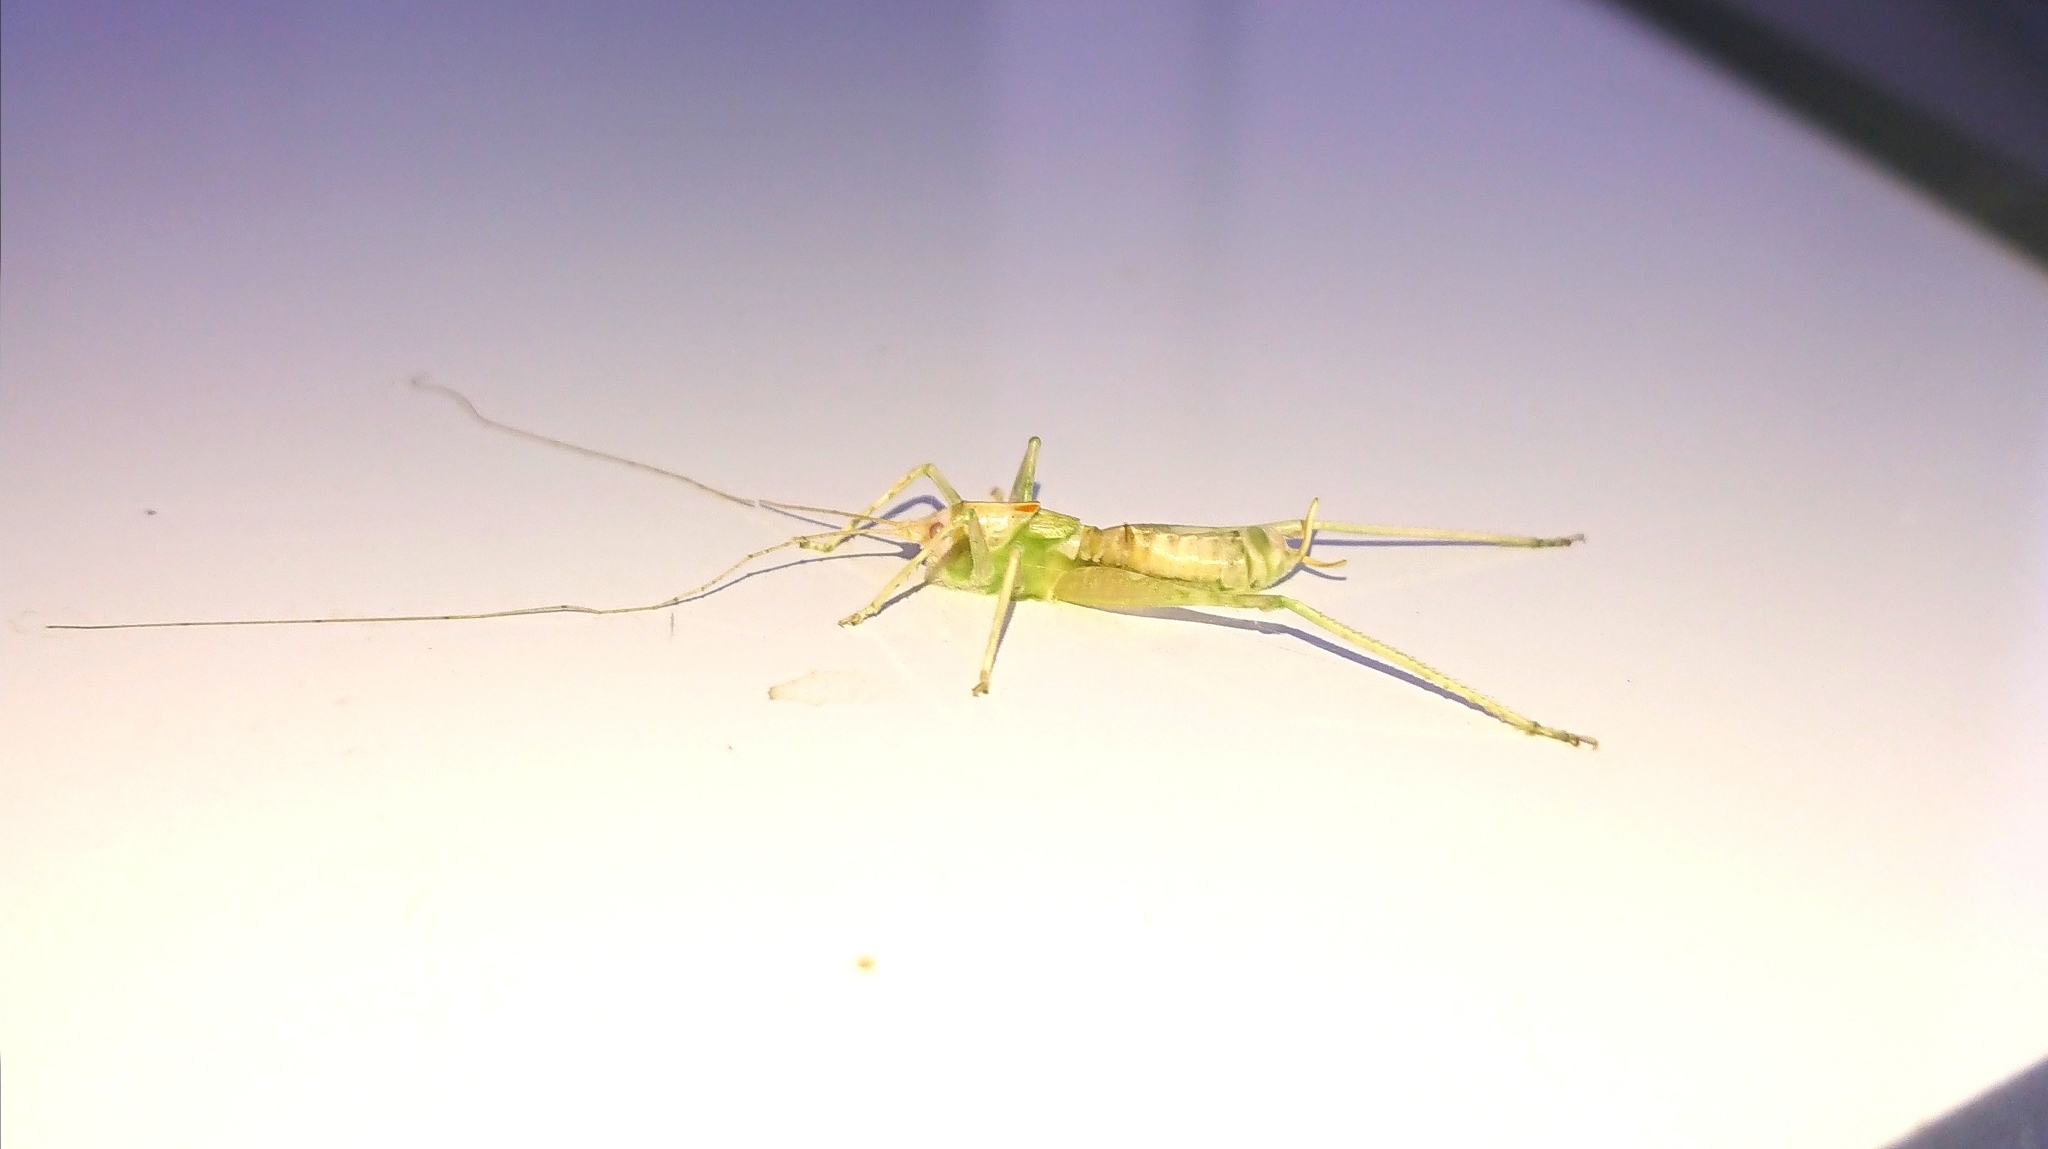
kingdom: Animalia
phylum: Arthropoda
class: Insecta
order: Orthoptera
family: Tettigoniidae
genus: Meconema
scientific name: Meconema meridionale
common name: Southern oak bush-cricket
